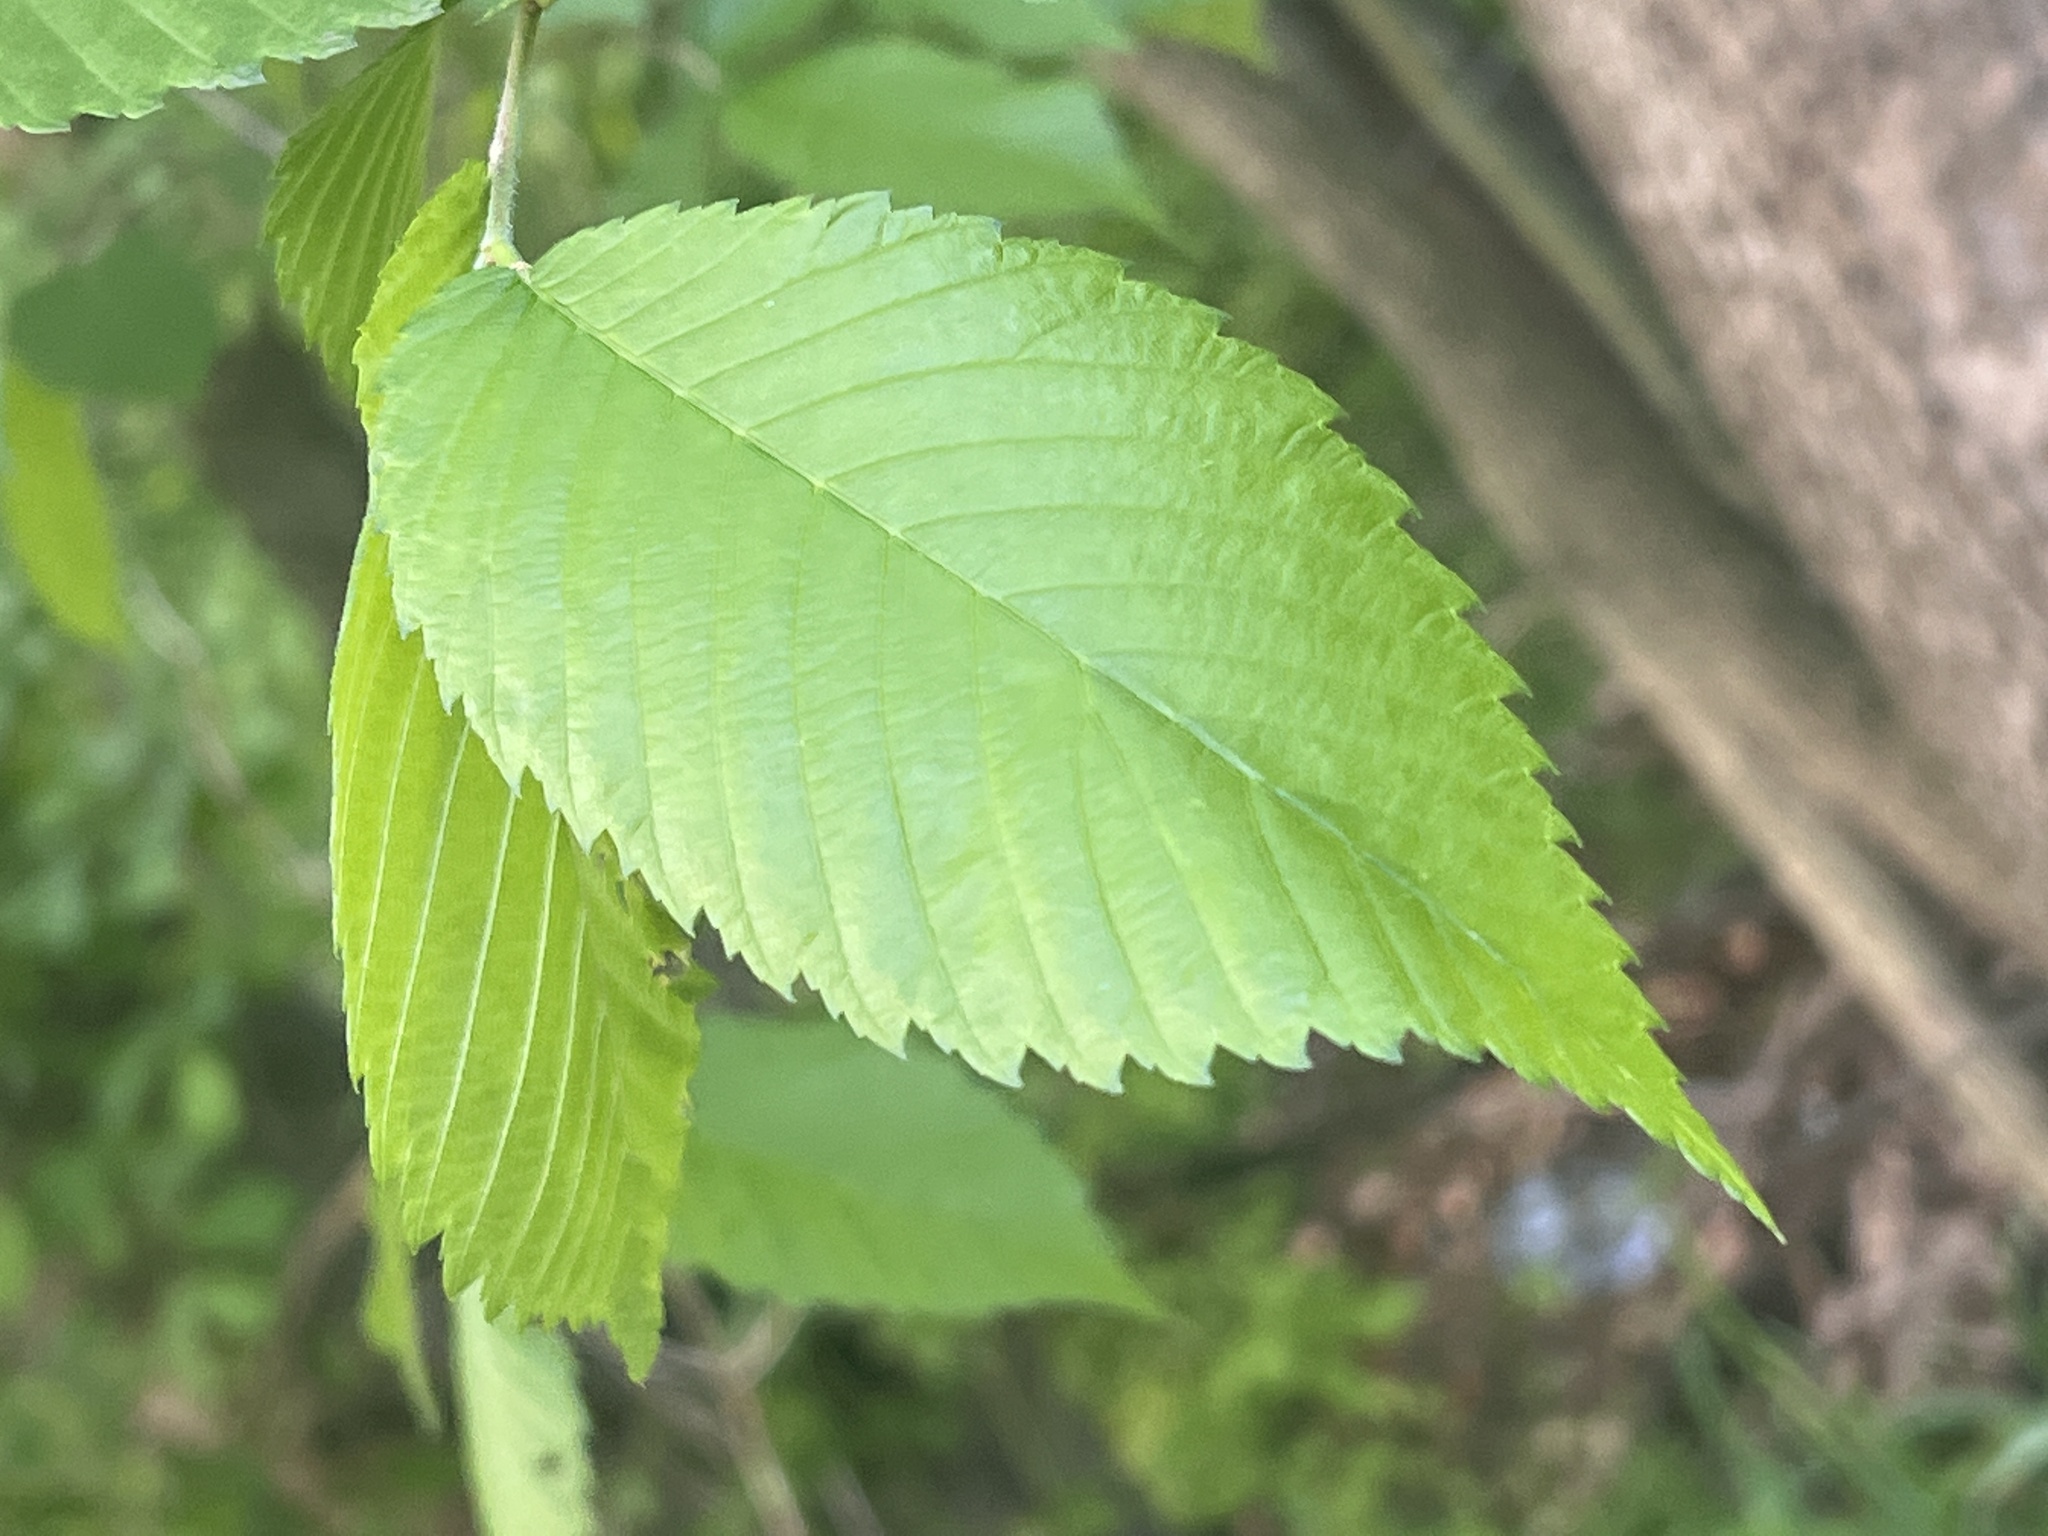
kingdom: Plantae
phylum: Tracheophyta
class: Magnoliopsida
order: Rosales
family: Ulmaceae
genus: Ulmus
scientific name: Ulmus americana
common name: American elm
